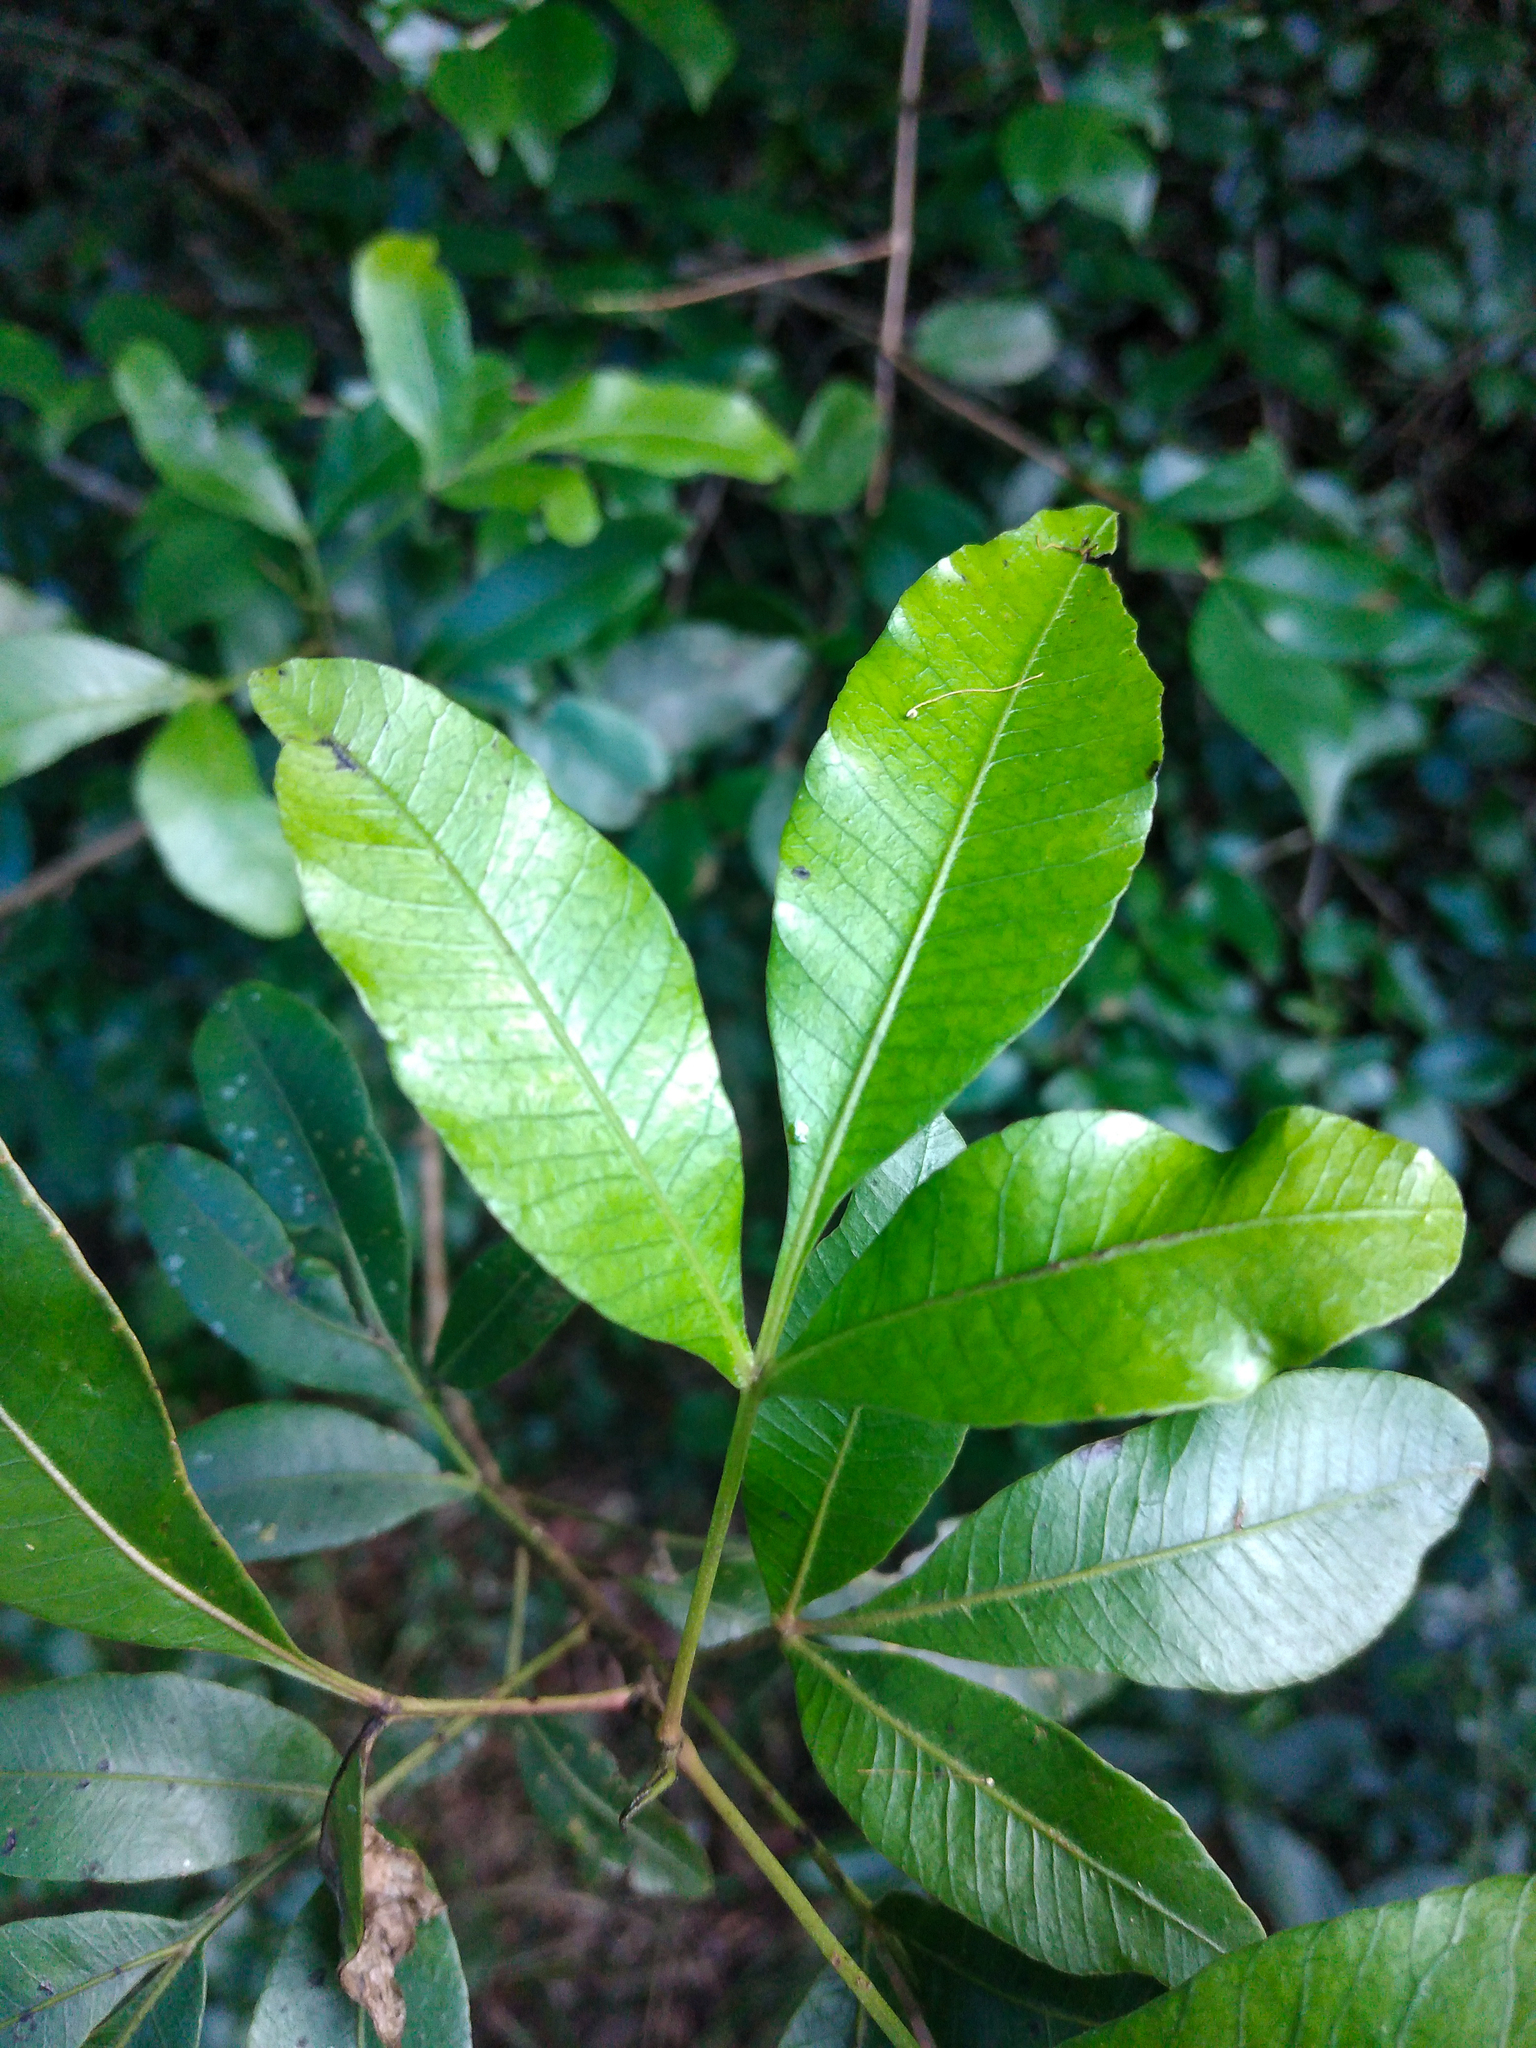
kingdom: Plantae
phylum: Tracheophyta
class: Magnoliopsida
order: Sapindales
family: Anacardiaceae
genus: Lithraea
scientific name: Lithraea molleoides
